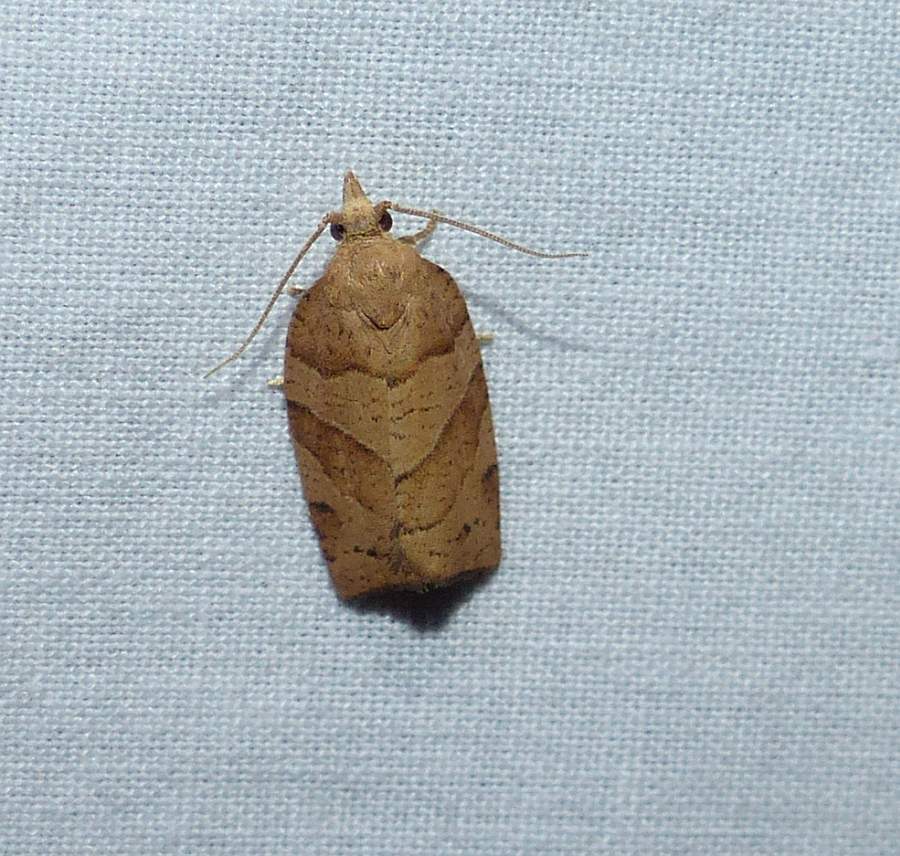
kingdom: Animalia
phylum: Arthropoda
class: Insecta
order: Lepidoptera
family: Tortricidae
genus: Pandemis
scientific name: Pandemis lamprosana
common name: Woodgrain leafroller moth
